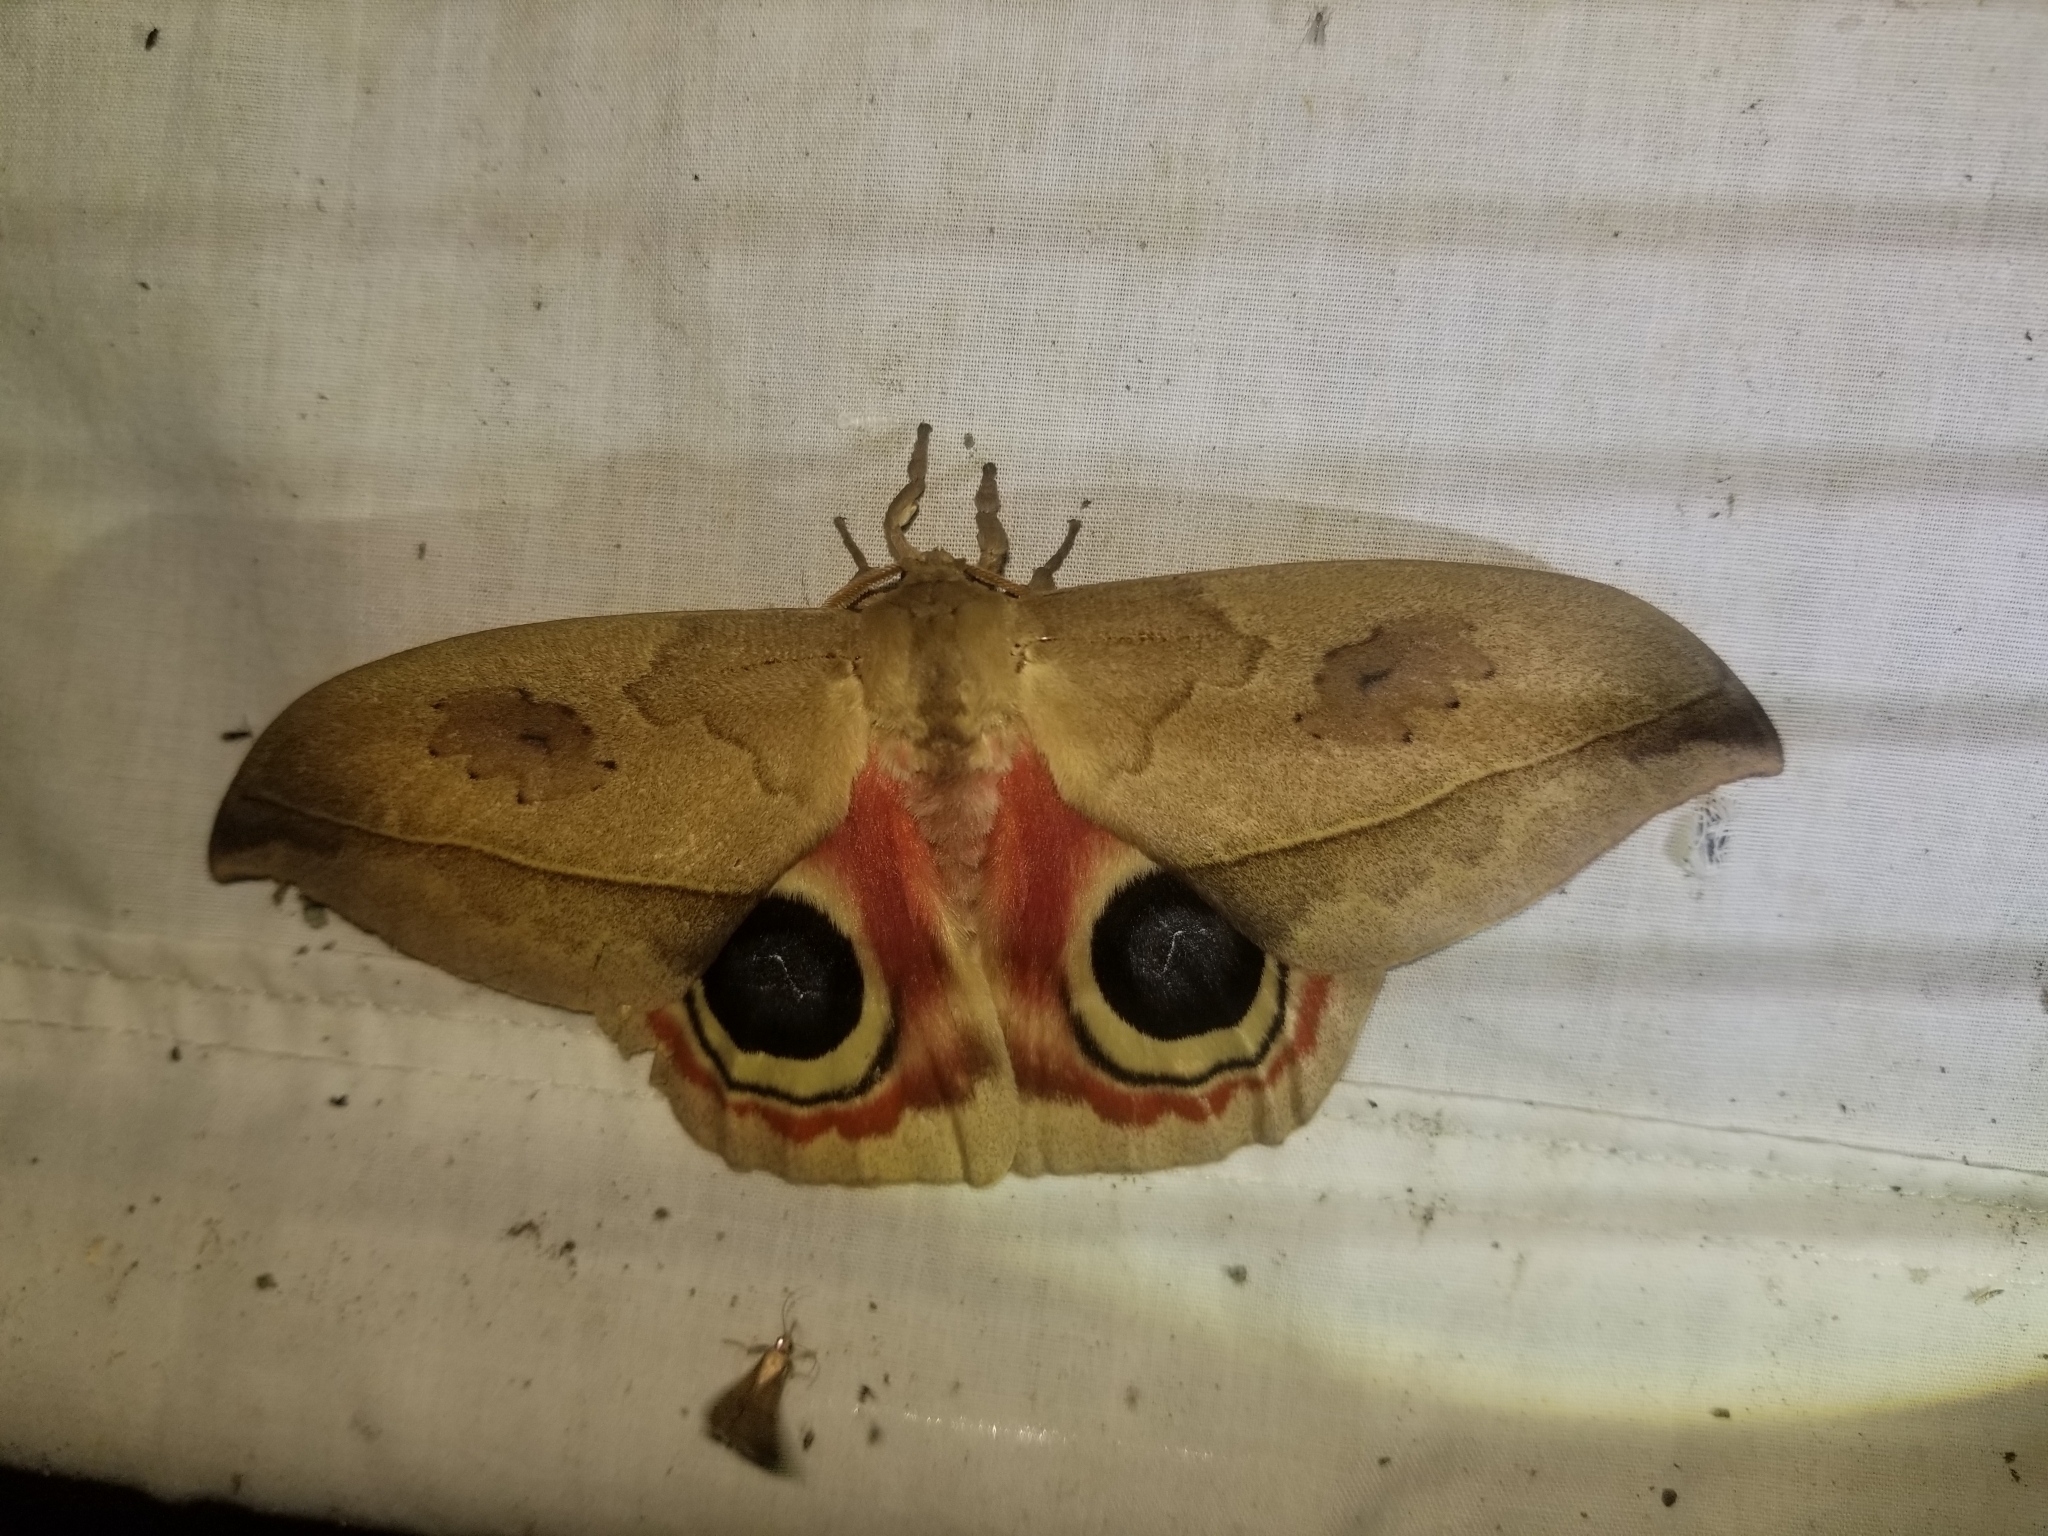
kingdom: Animalia
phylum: Arthropoda
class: Insecta
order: Lepidoptera
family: Saturniidae
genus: Automeris
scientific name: Automeris dagmarae
